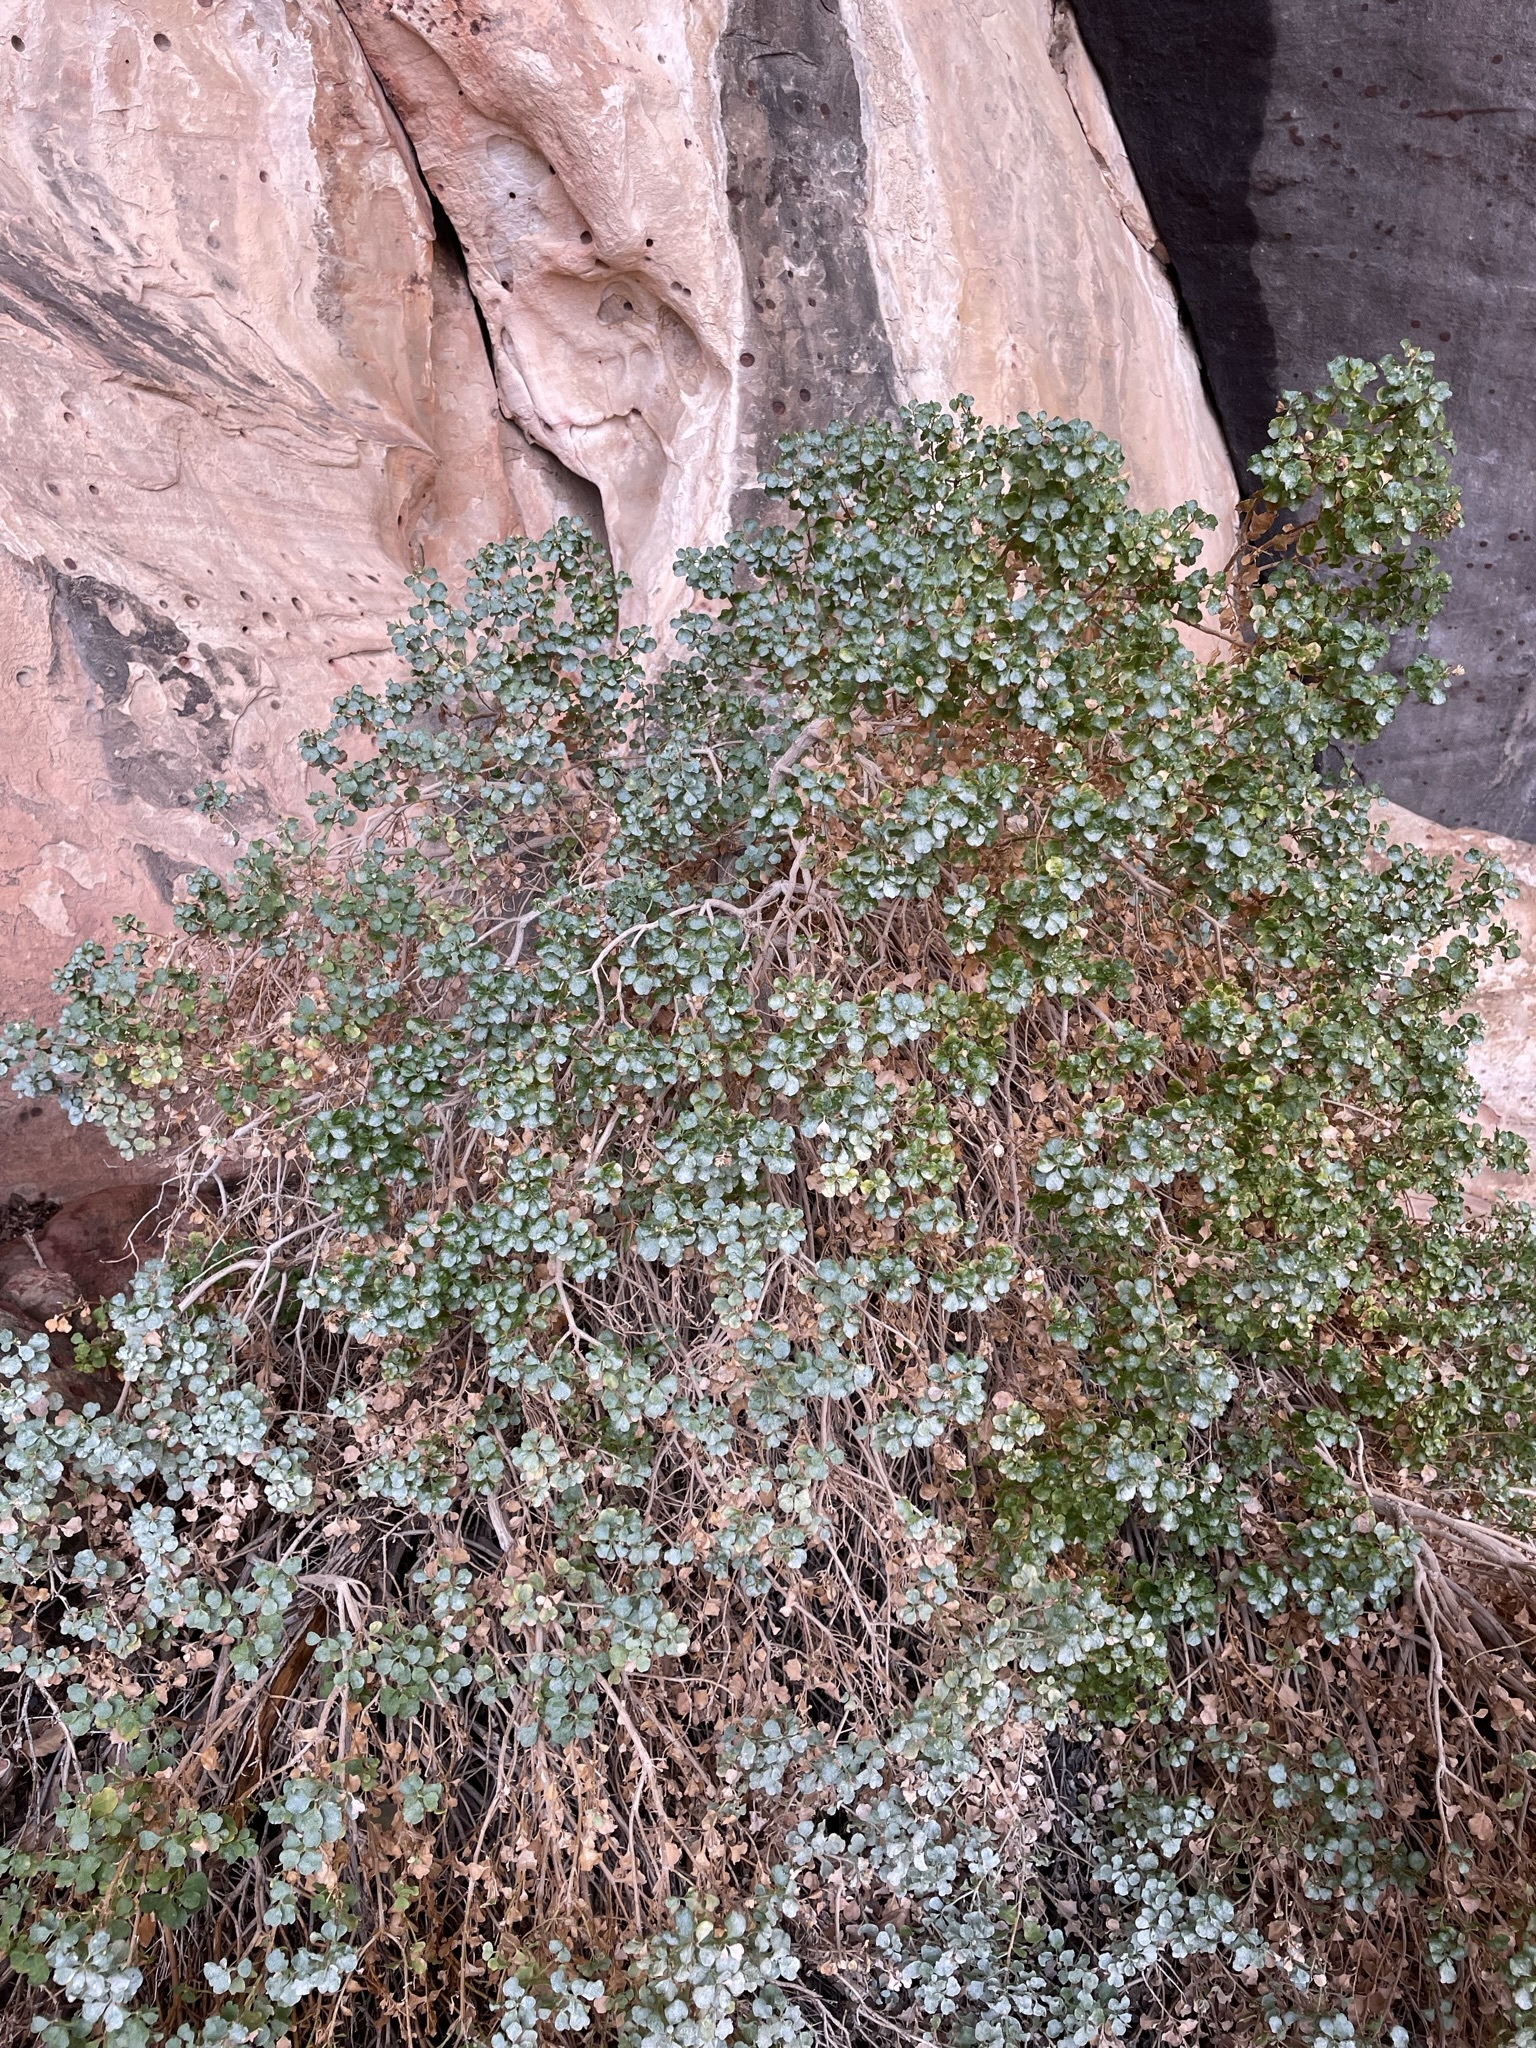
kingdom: Plantae
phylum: Tracheophyta
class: Magnoliopsida
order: Asterales
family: Asteraceae
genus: Ericameria
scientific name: Ericameria cuneata
